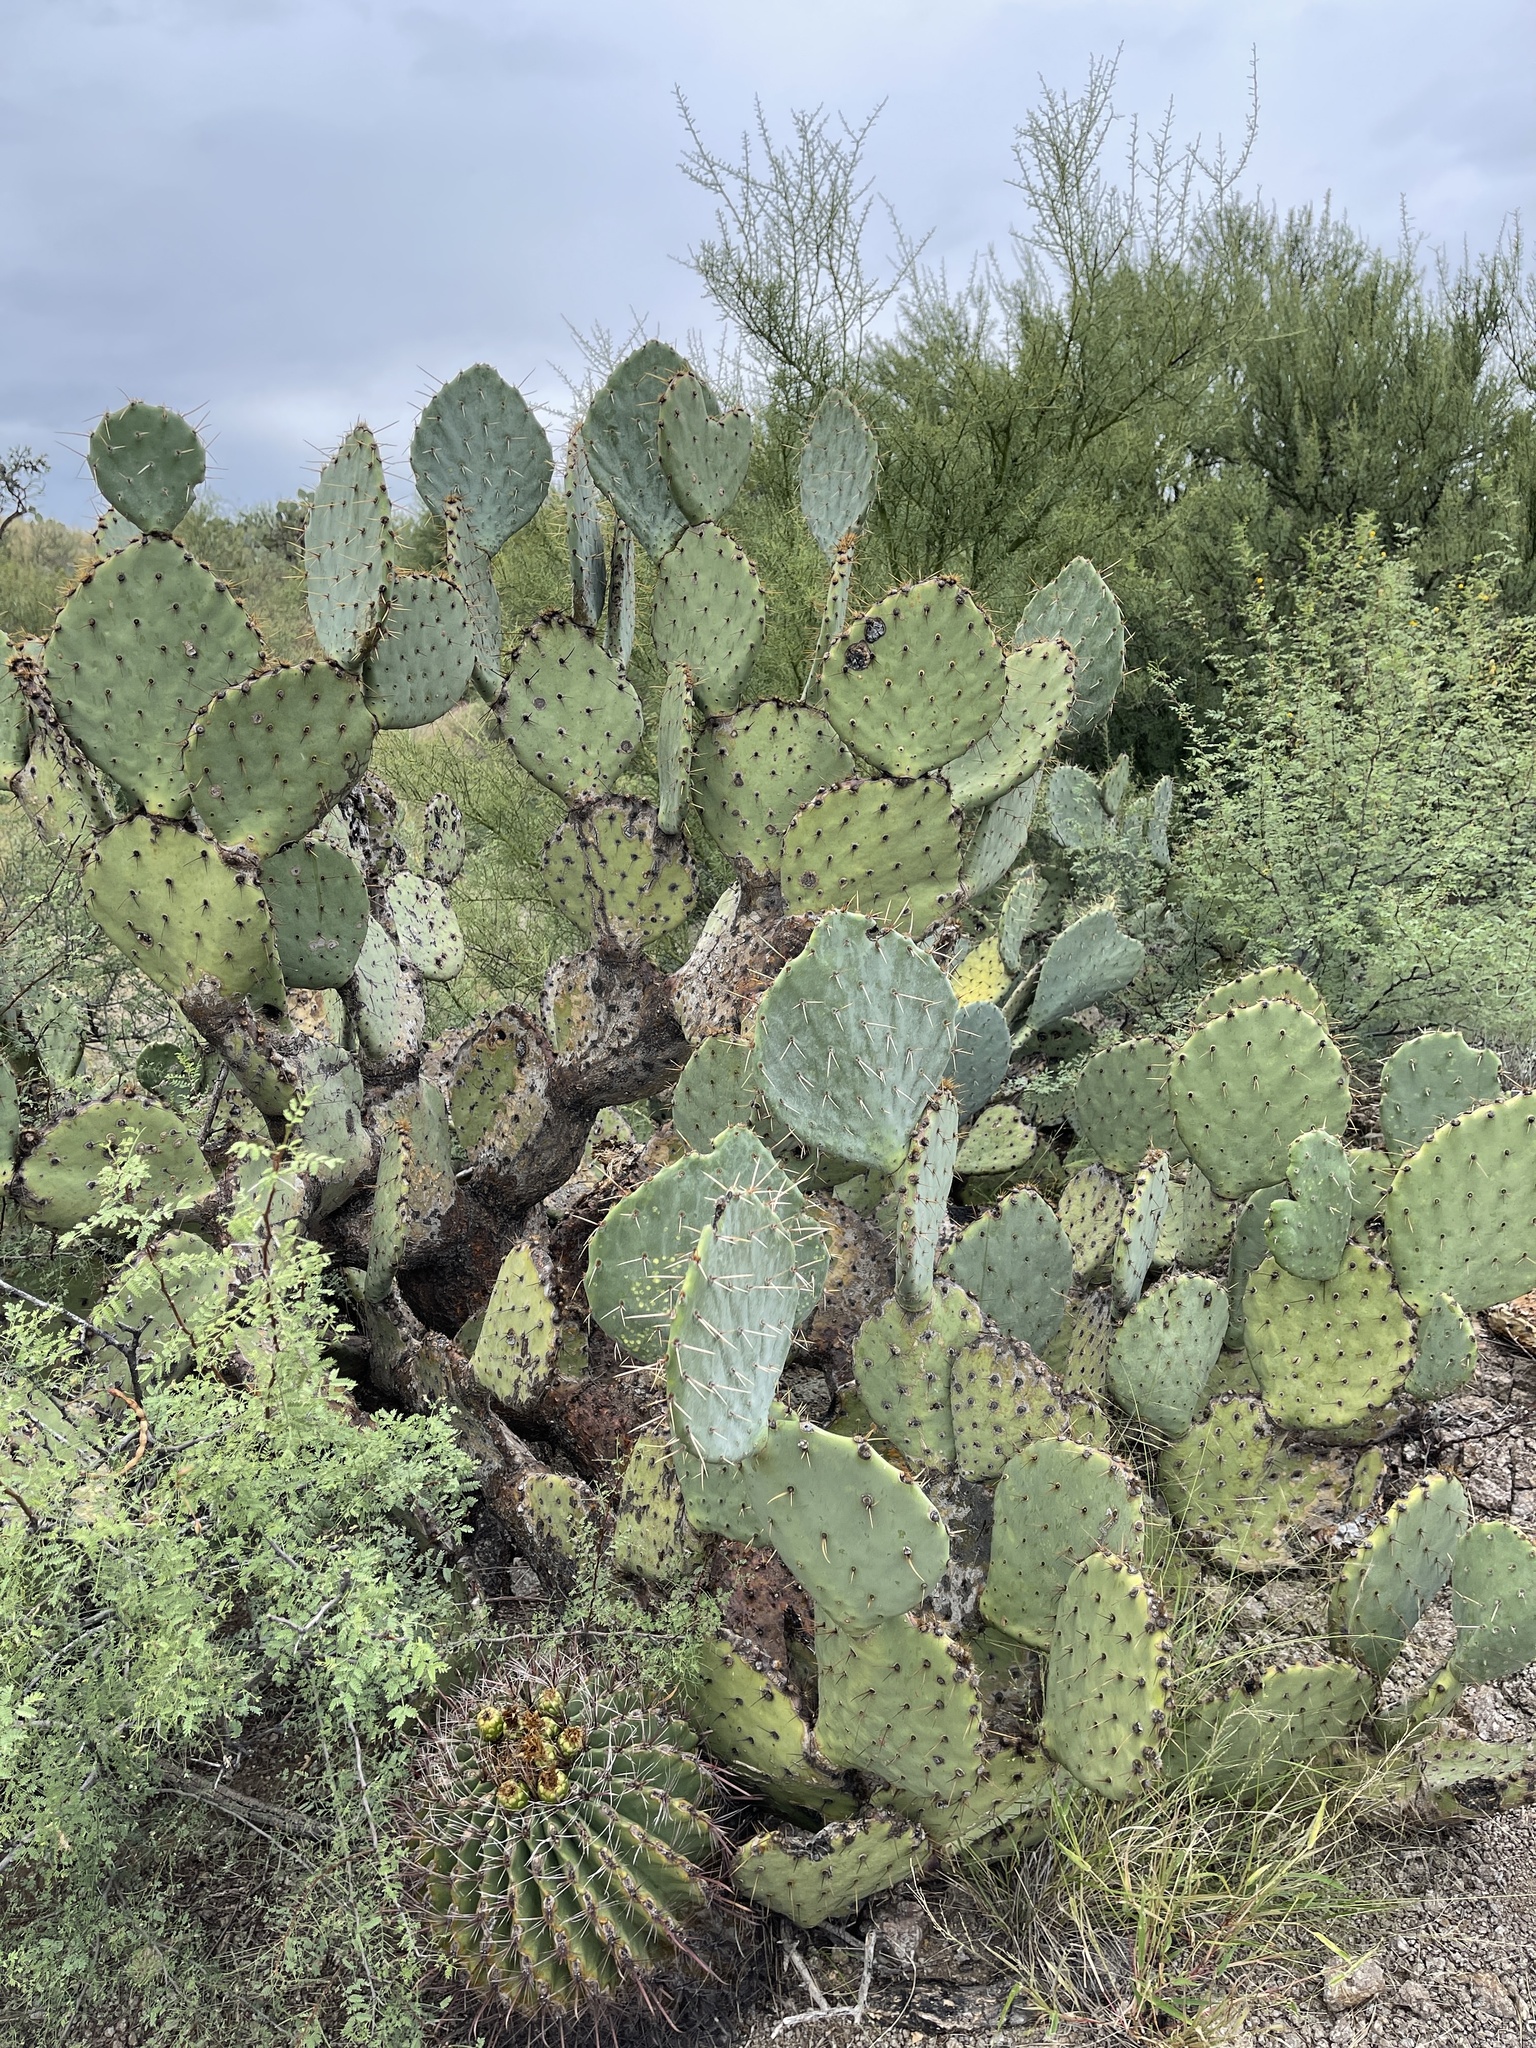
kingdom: Plantae
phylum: Tracheophyta
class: Magnoliopsida
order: Caryophyllales
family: Cactaceae
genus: Opuntia
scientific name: Opuntia engelmannii
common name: Cactus-apple
